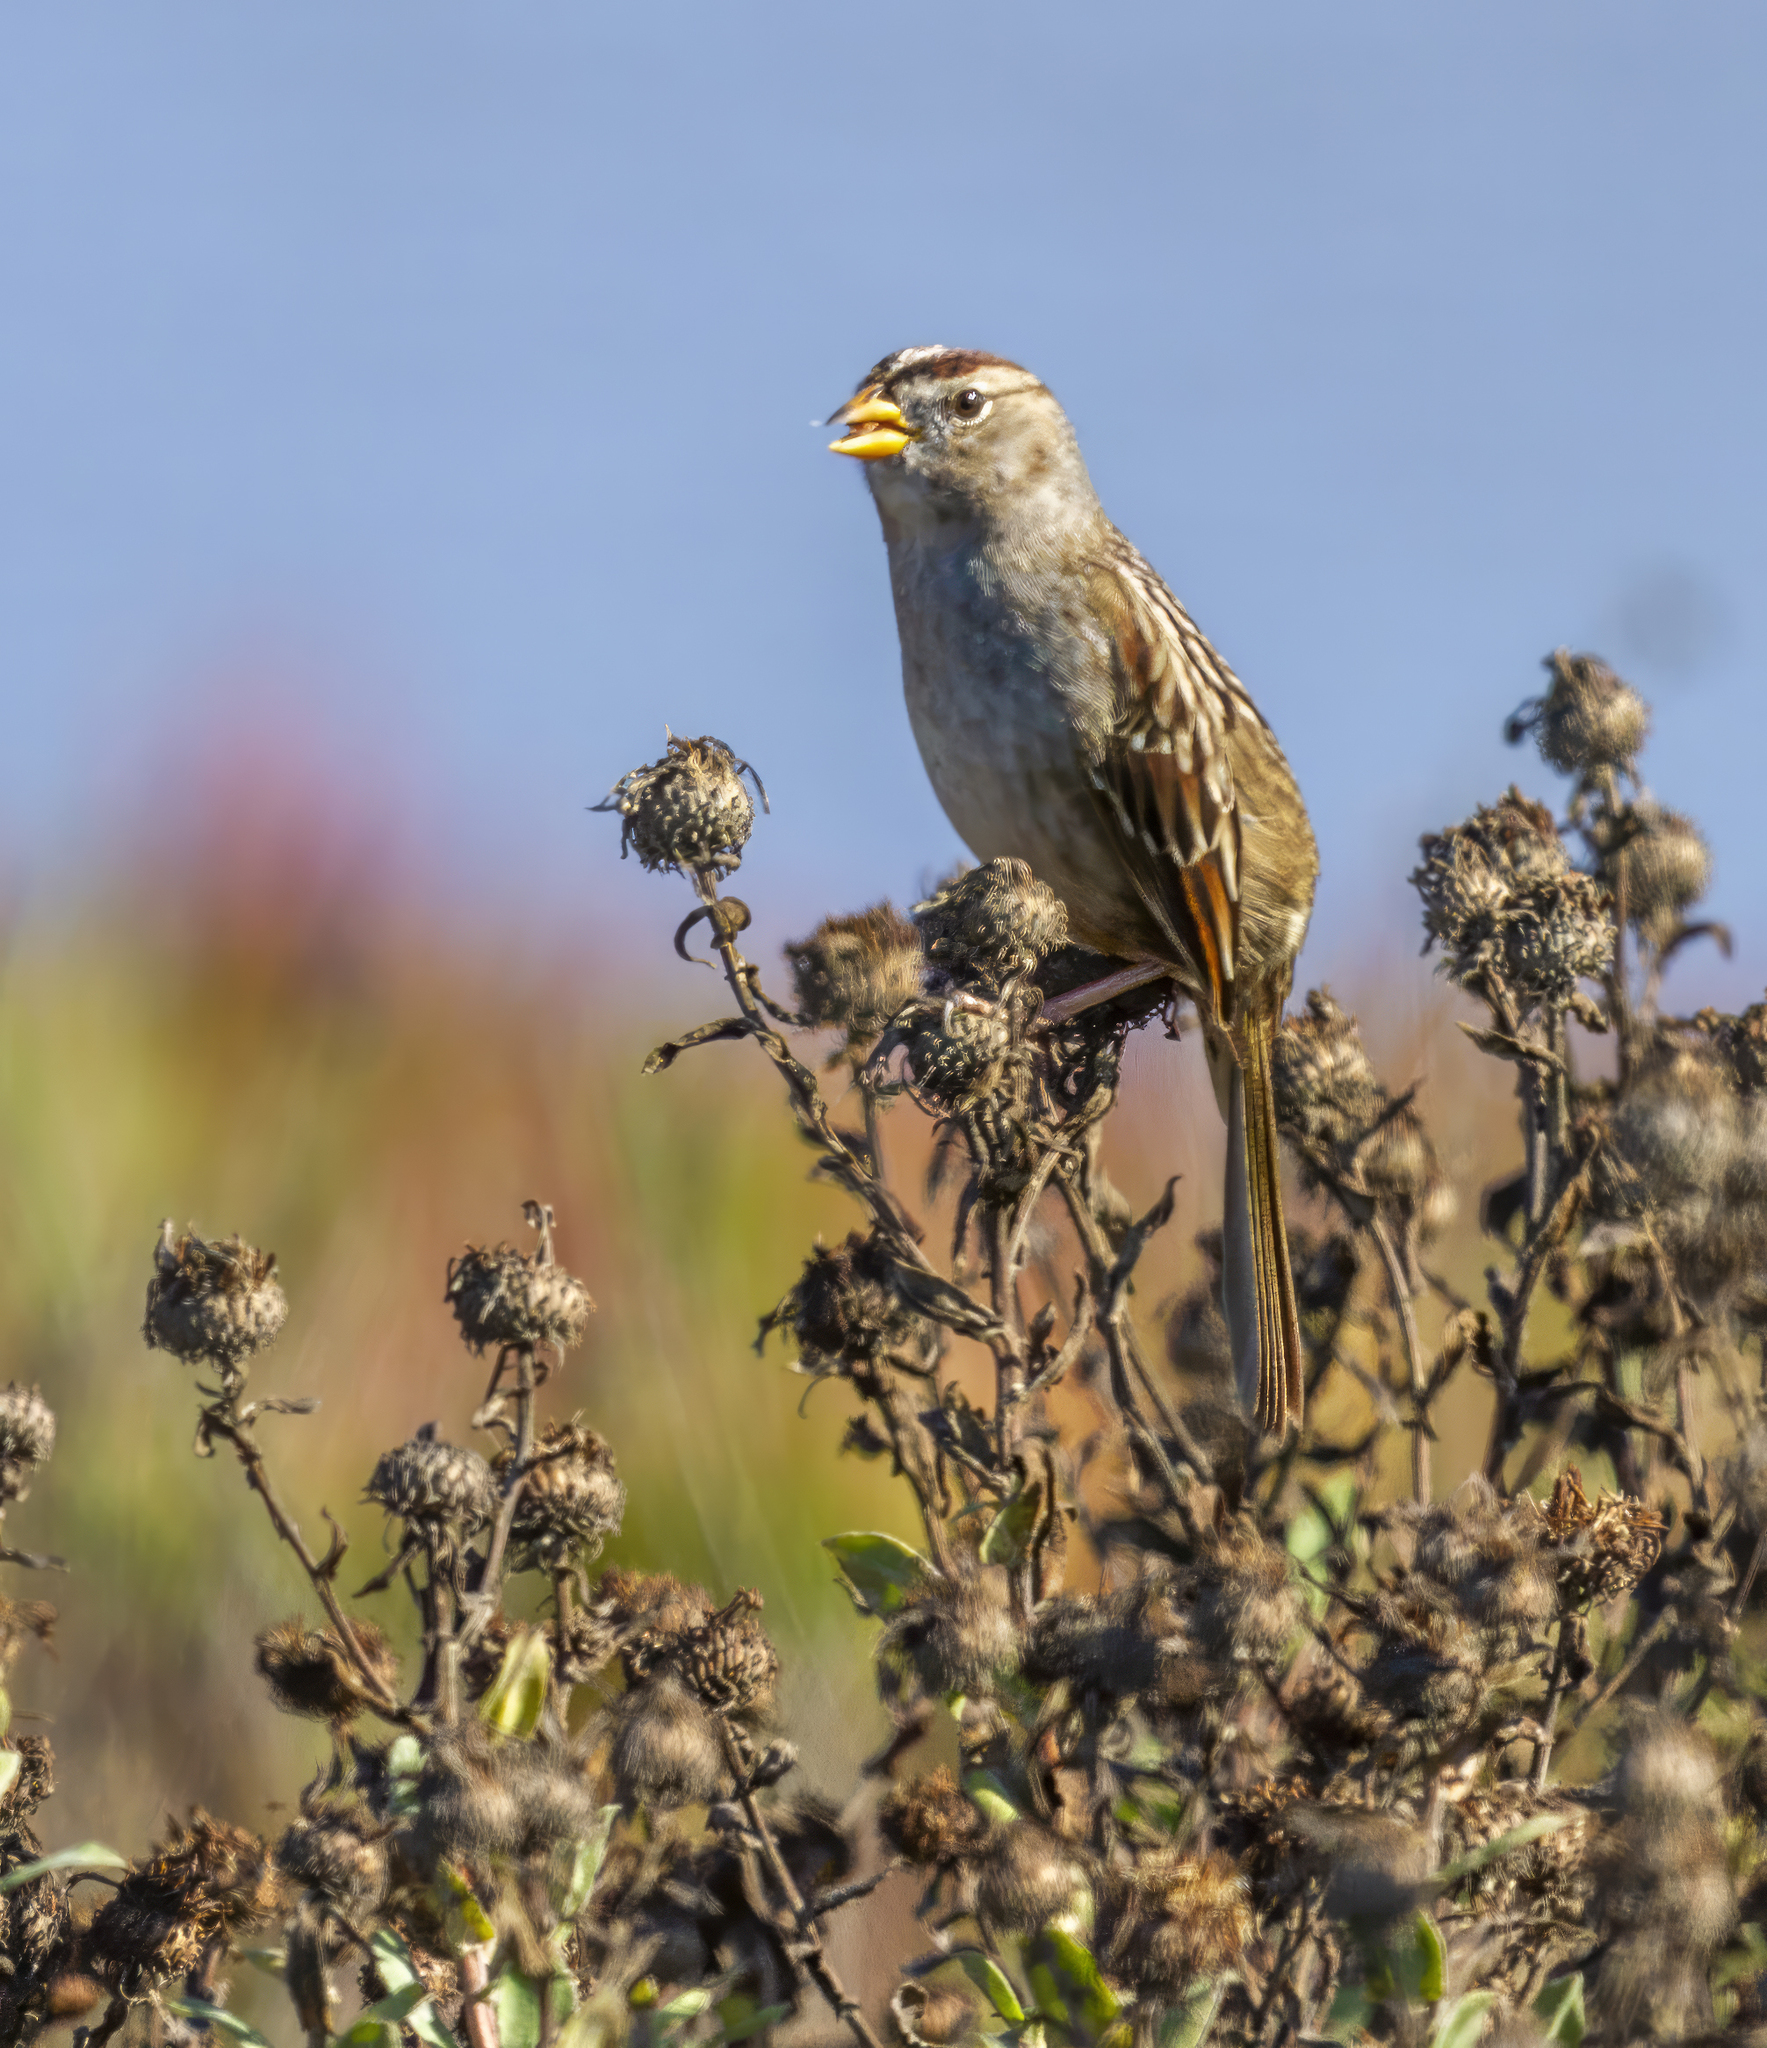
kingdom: Animalia
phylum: Chordata
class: Aves
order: Passeriformes
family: Passerellidae
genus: Zonotrichia
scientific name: Zonotrichia leucophrys
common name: White-crowned sparrow
